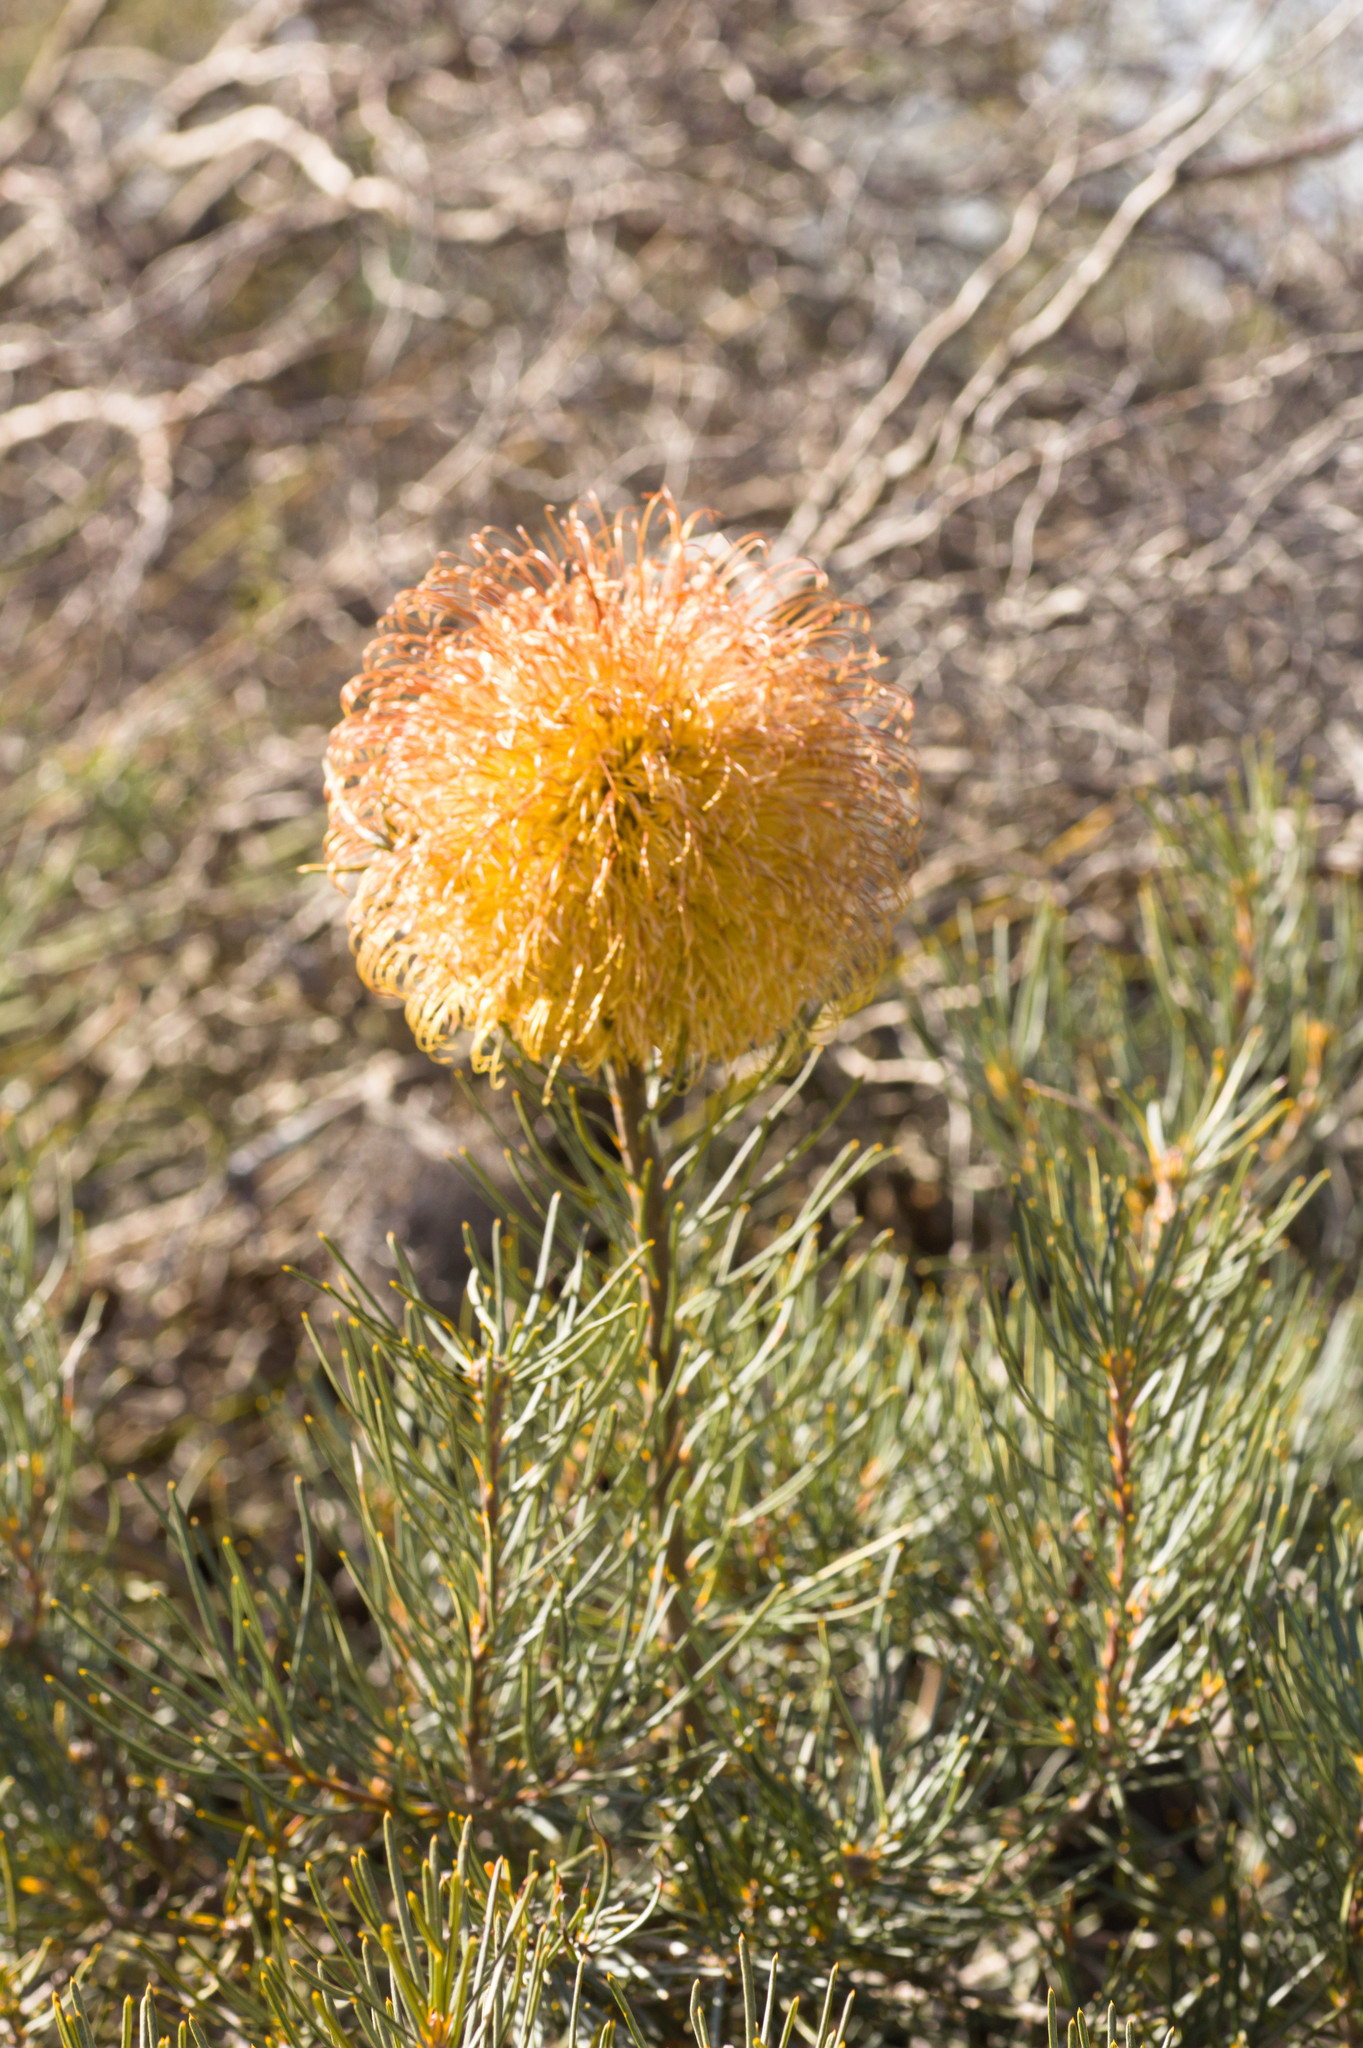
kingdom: Plantae
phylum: Tracheophyta
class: Magnoliopsida
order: Proteales
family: Proteaceae
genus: Banksia
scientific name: Banksia sphaerocarpa
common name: Fox banksia
